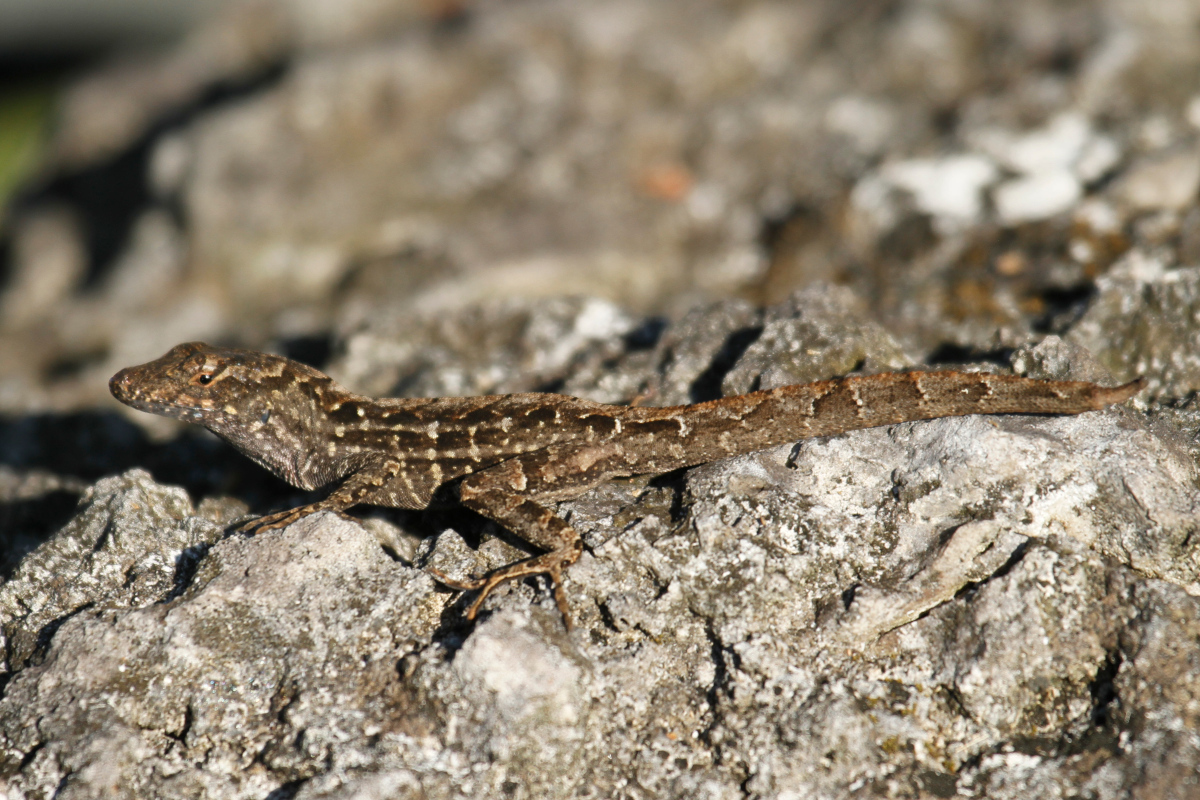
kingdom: Animalia
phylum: Chordata
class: Squamata
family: Dactyloidae
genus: Anolis
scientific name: Anolis sagrei
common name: Brown anole
